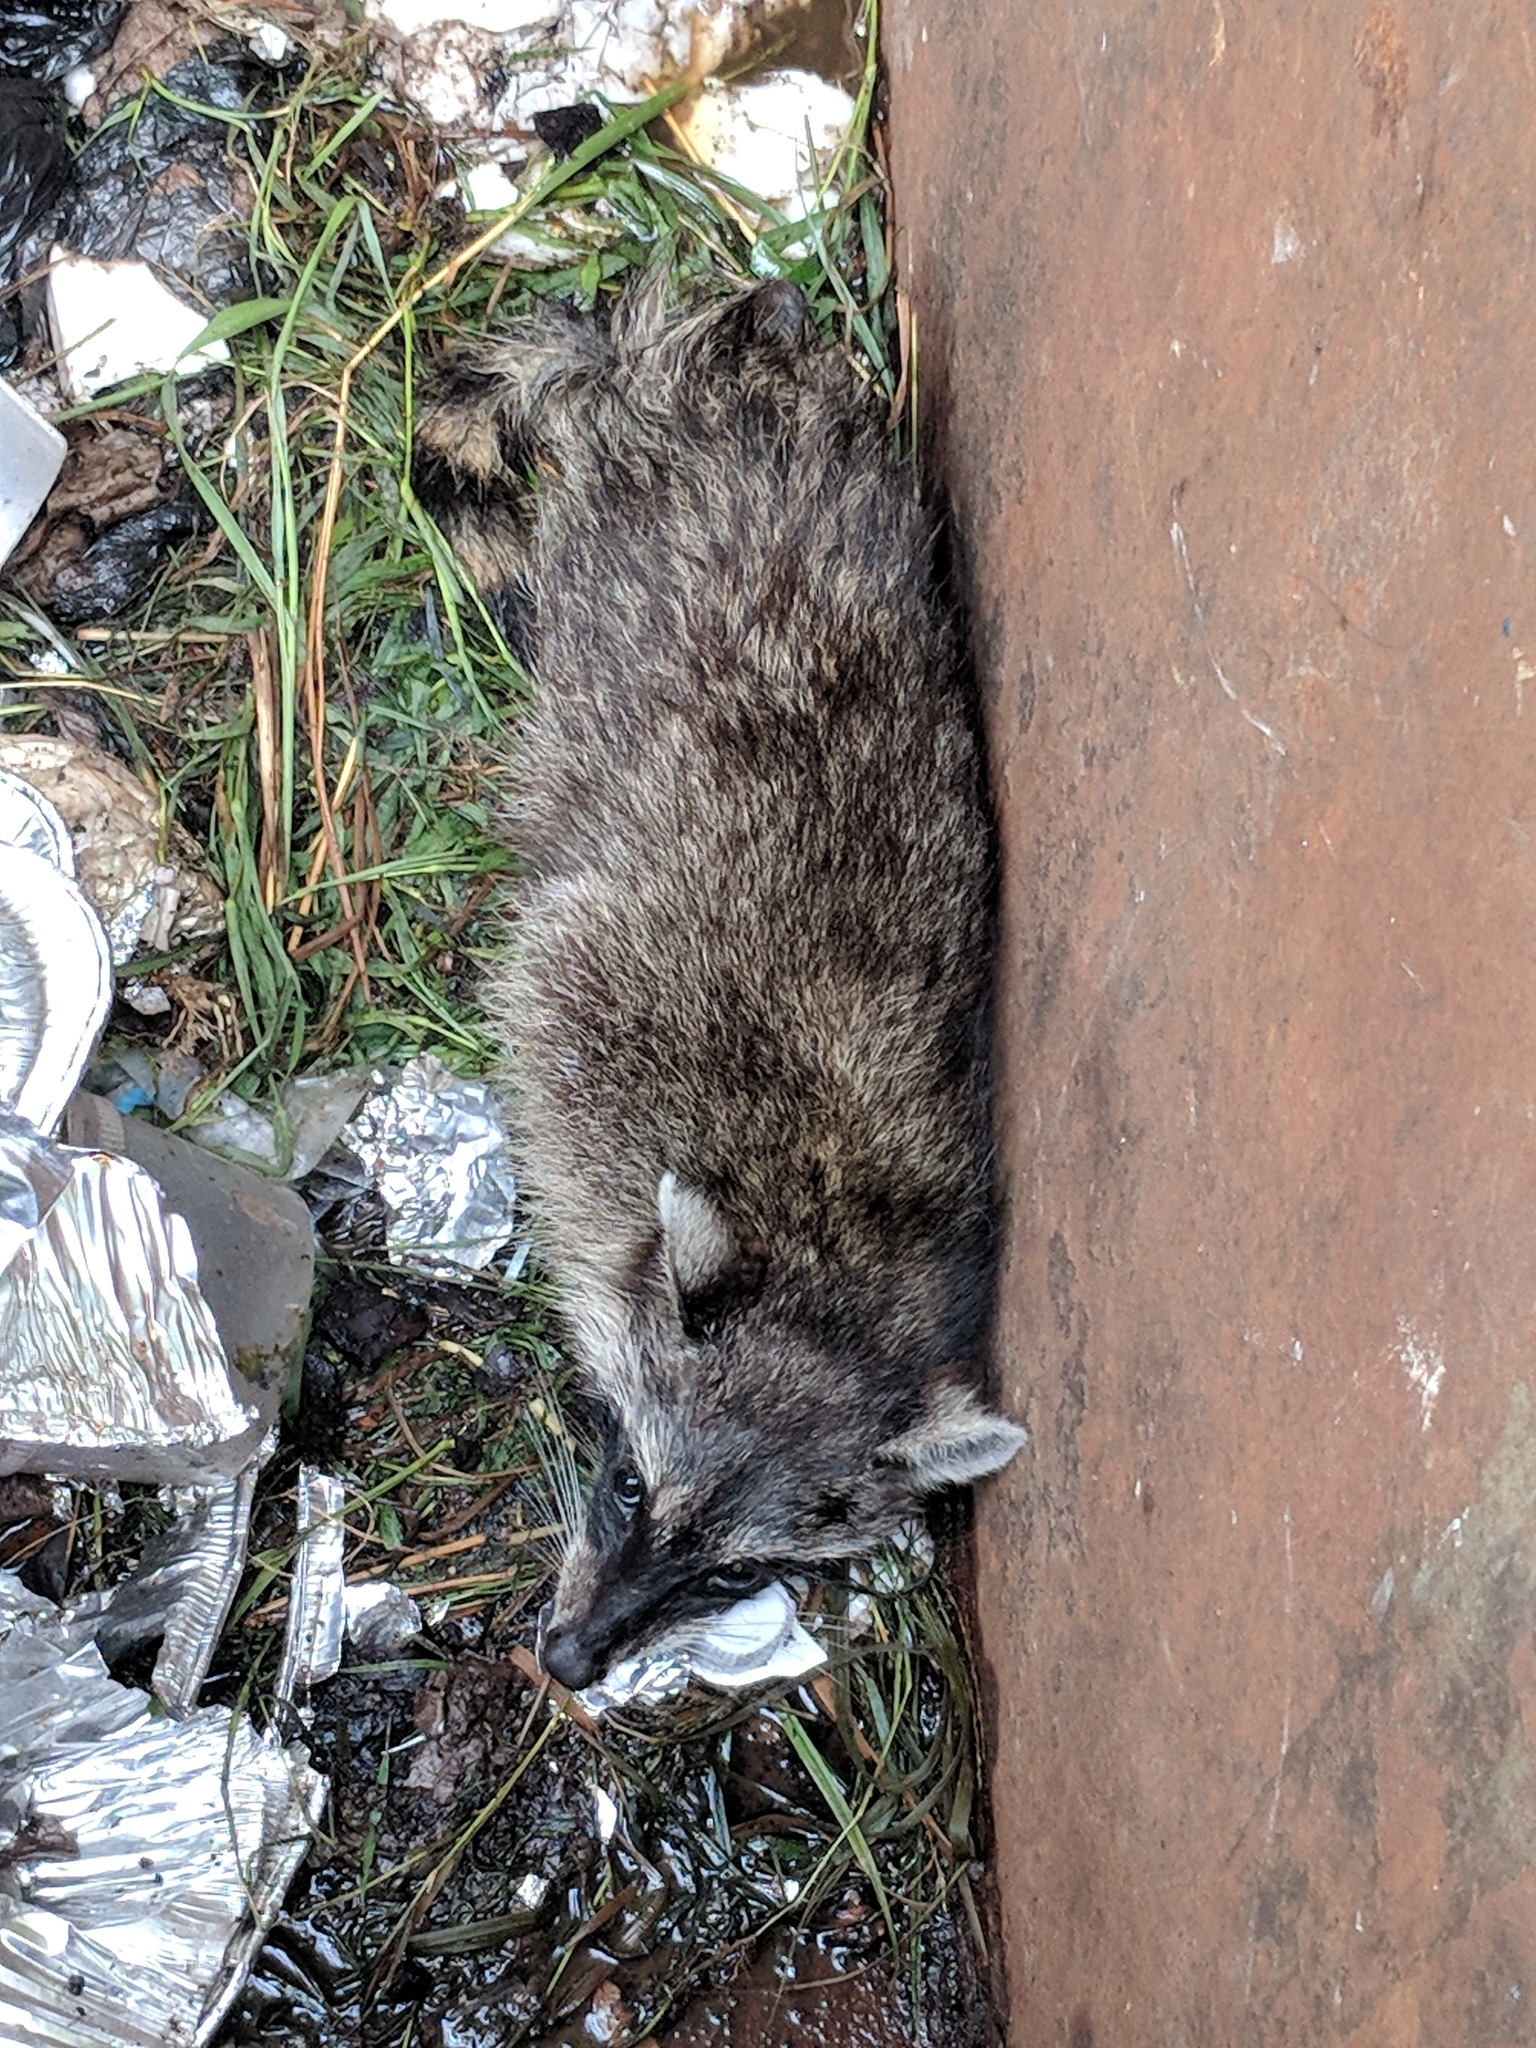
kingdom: Animalia
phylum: Chordata
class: Mammalia
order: Carnivora
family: Procyonidae
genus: Procyon
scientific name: Procyon lotor
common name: Raccoon
